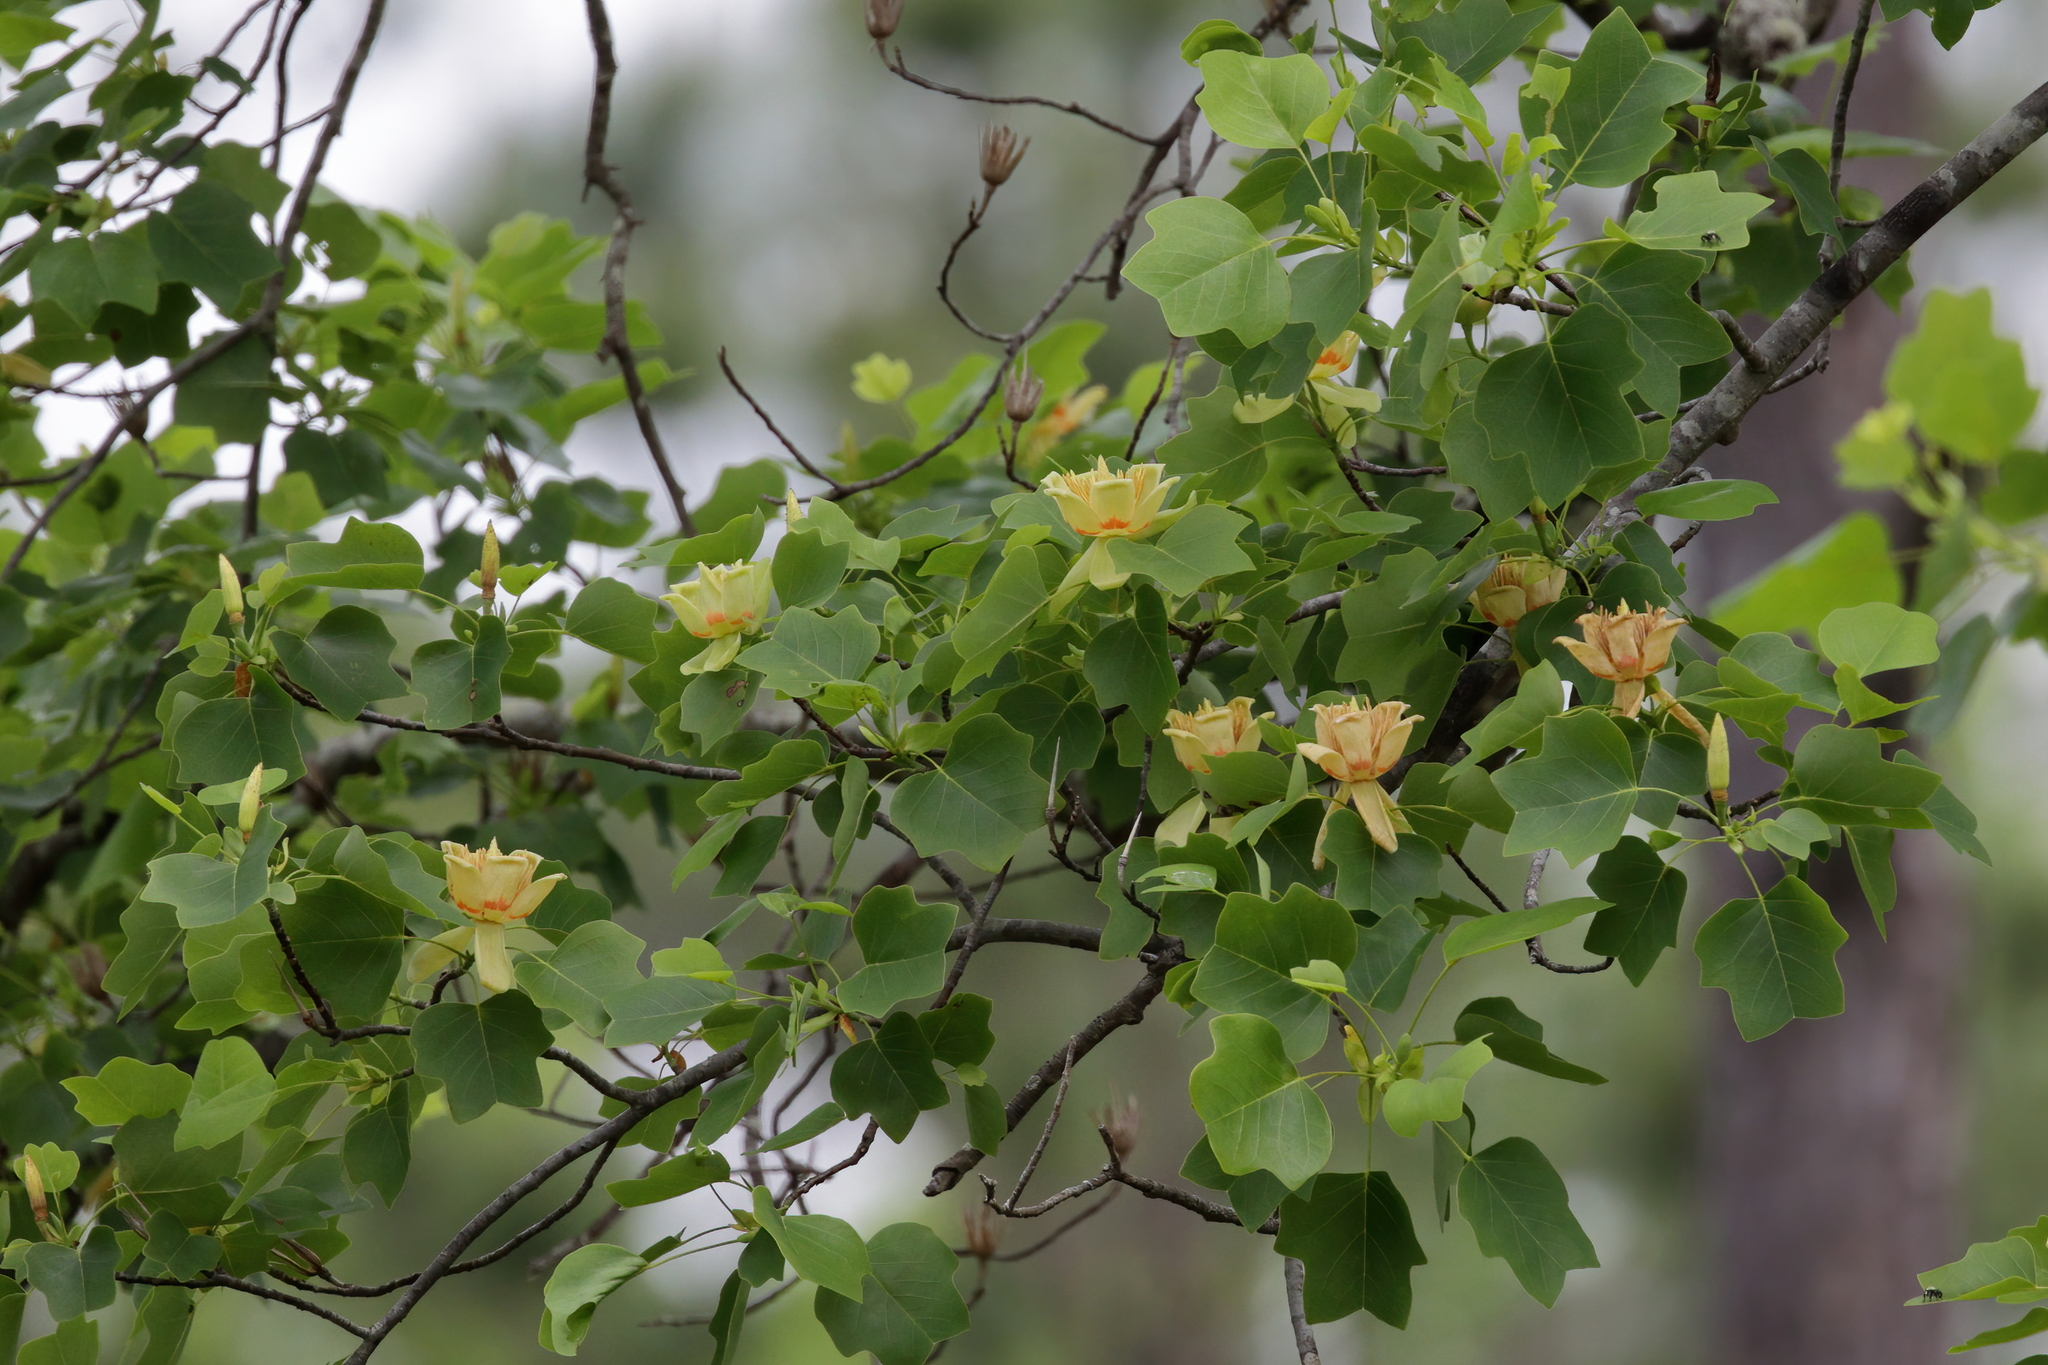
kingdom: Plantae
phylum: Tracheophyta
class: Magnoliopsida
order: Magnoliales
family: Magnoliaceae
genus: Liriodendron
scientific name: Liriodendron tulipifera
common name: Tulip tree
